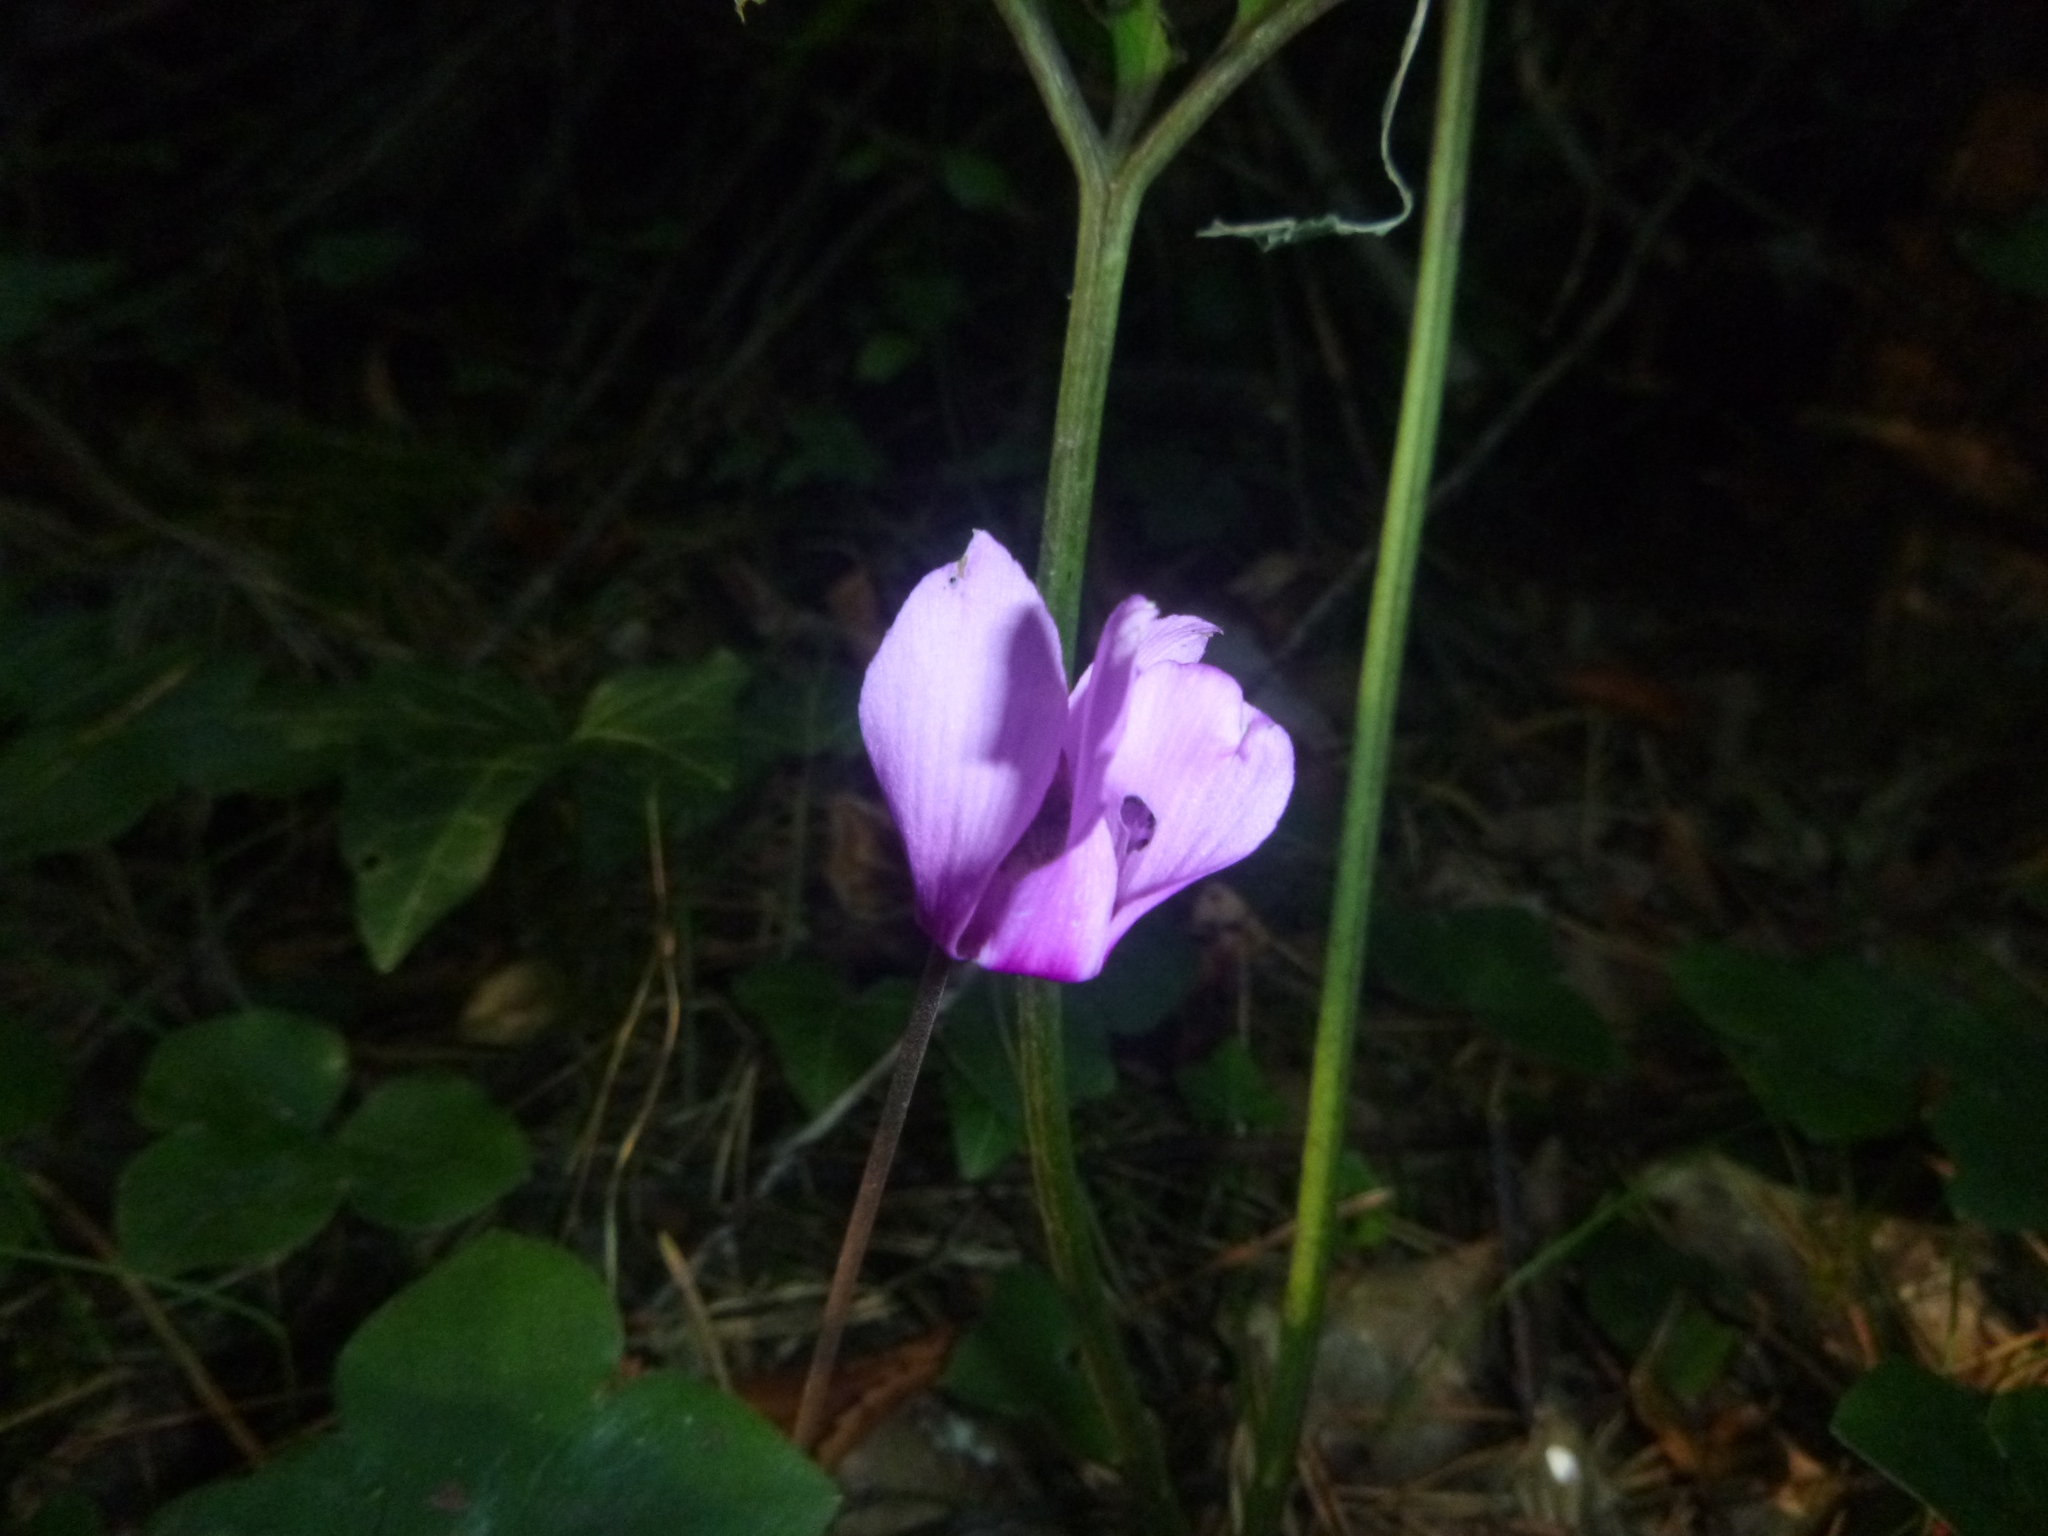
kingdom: Plantae
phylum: Tracheophyta
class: Magnoliopsida
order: Ericales
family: Primulaceae
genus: Cyclamen
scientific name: Cyclamen purpurascens
